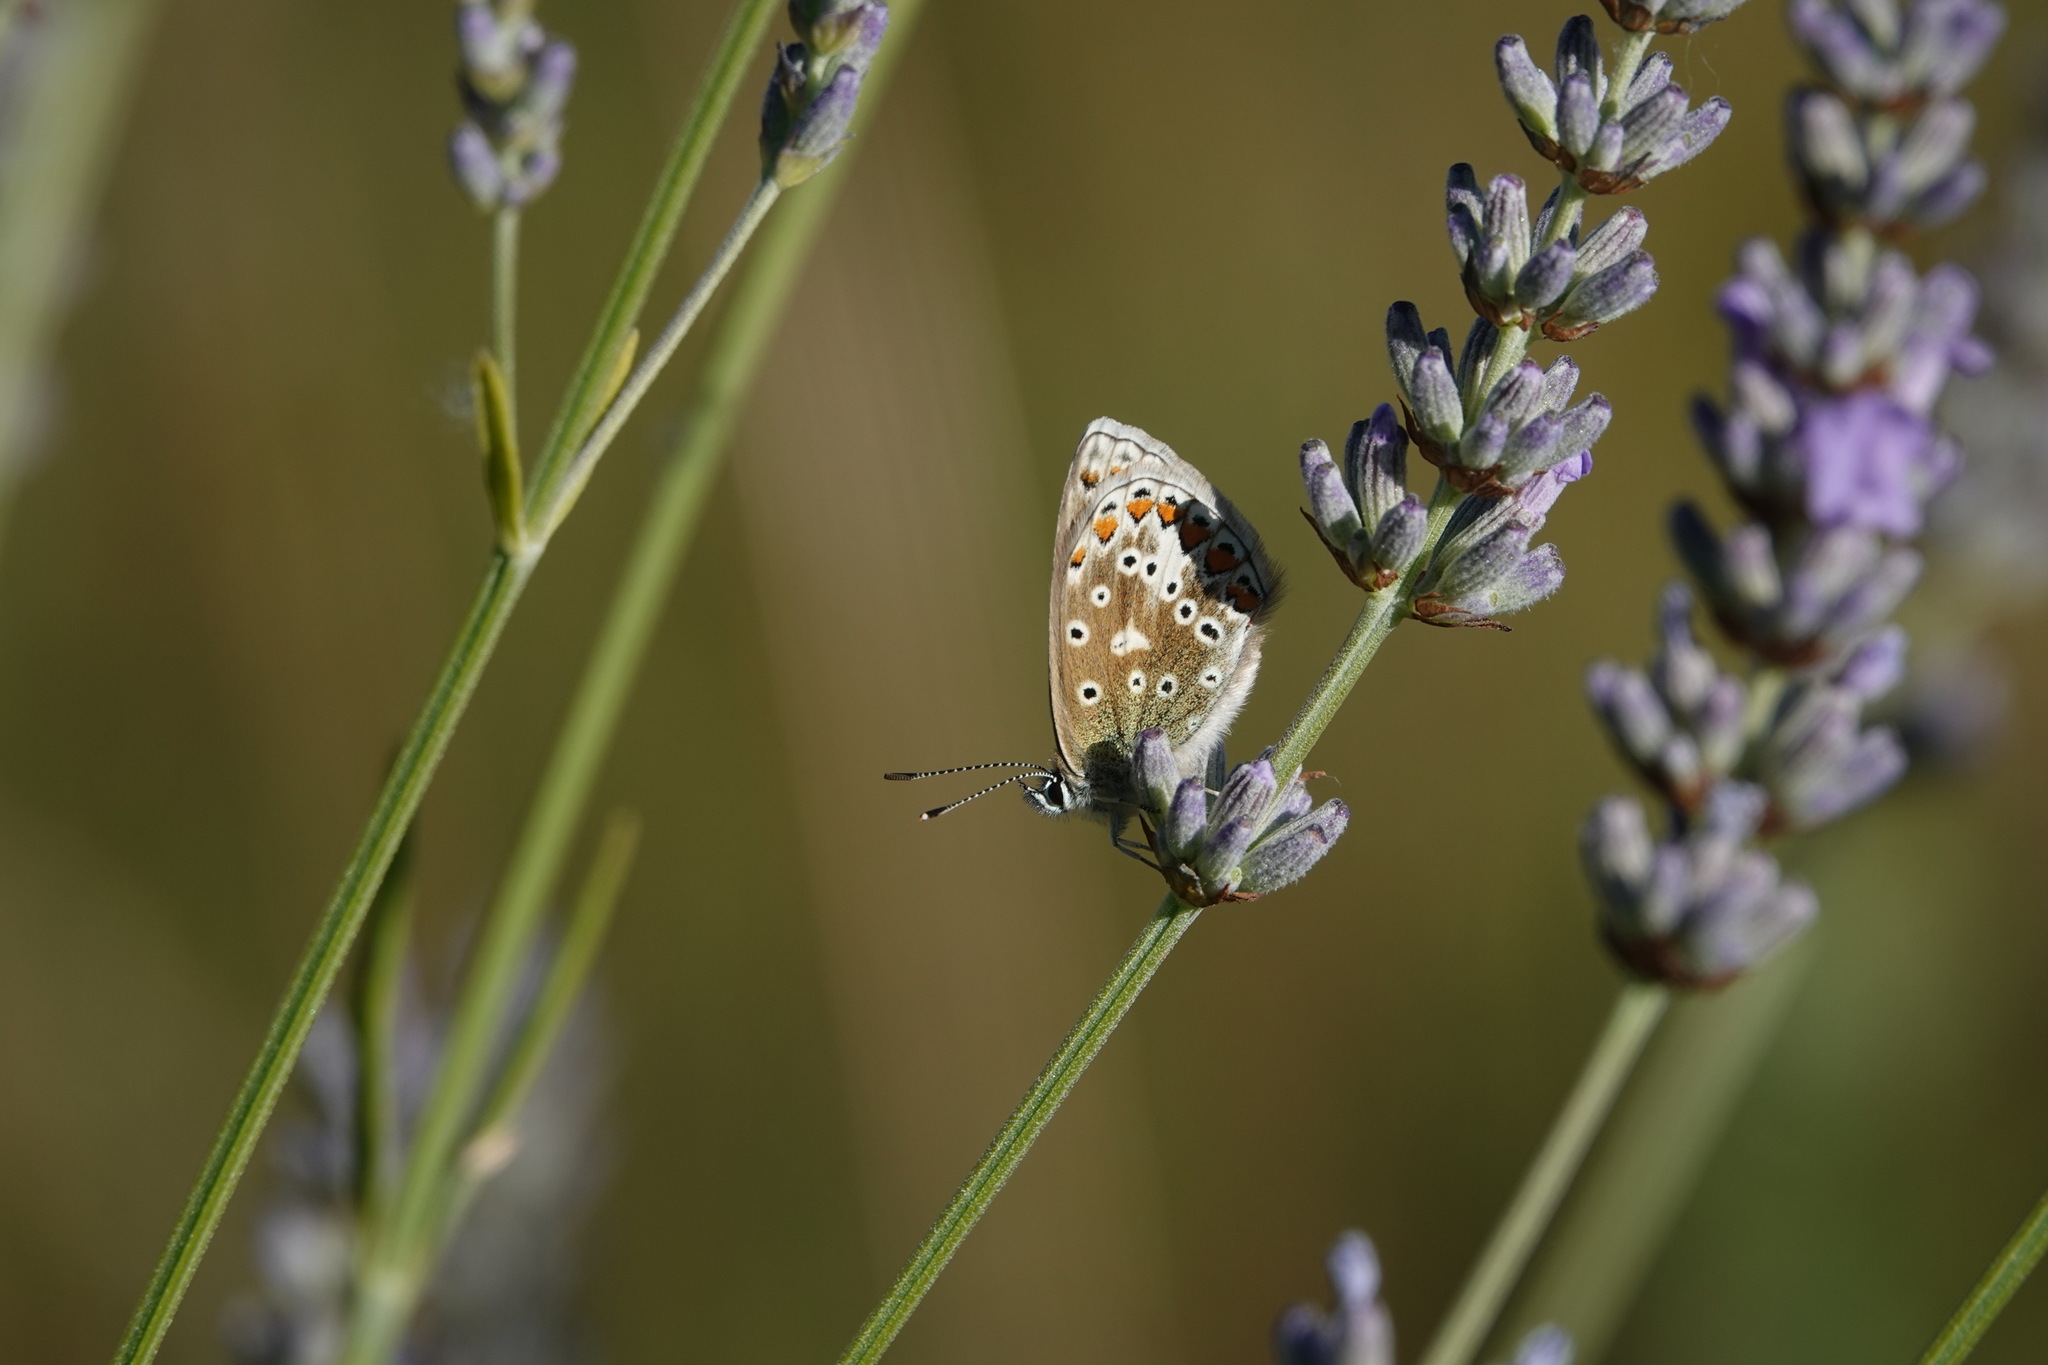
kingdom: Animalia
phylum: Arthropoda
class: Insecta
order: Lepidoptera
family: Lycaenidae
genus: Polyommatus
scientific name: Polyommatus icarus
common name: Common blue
